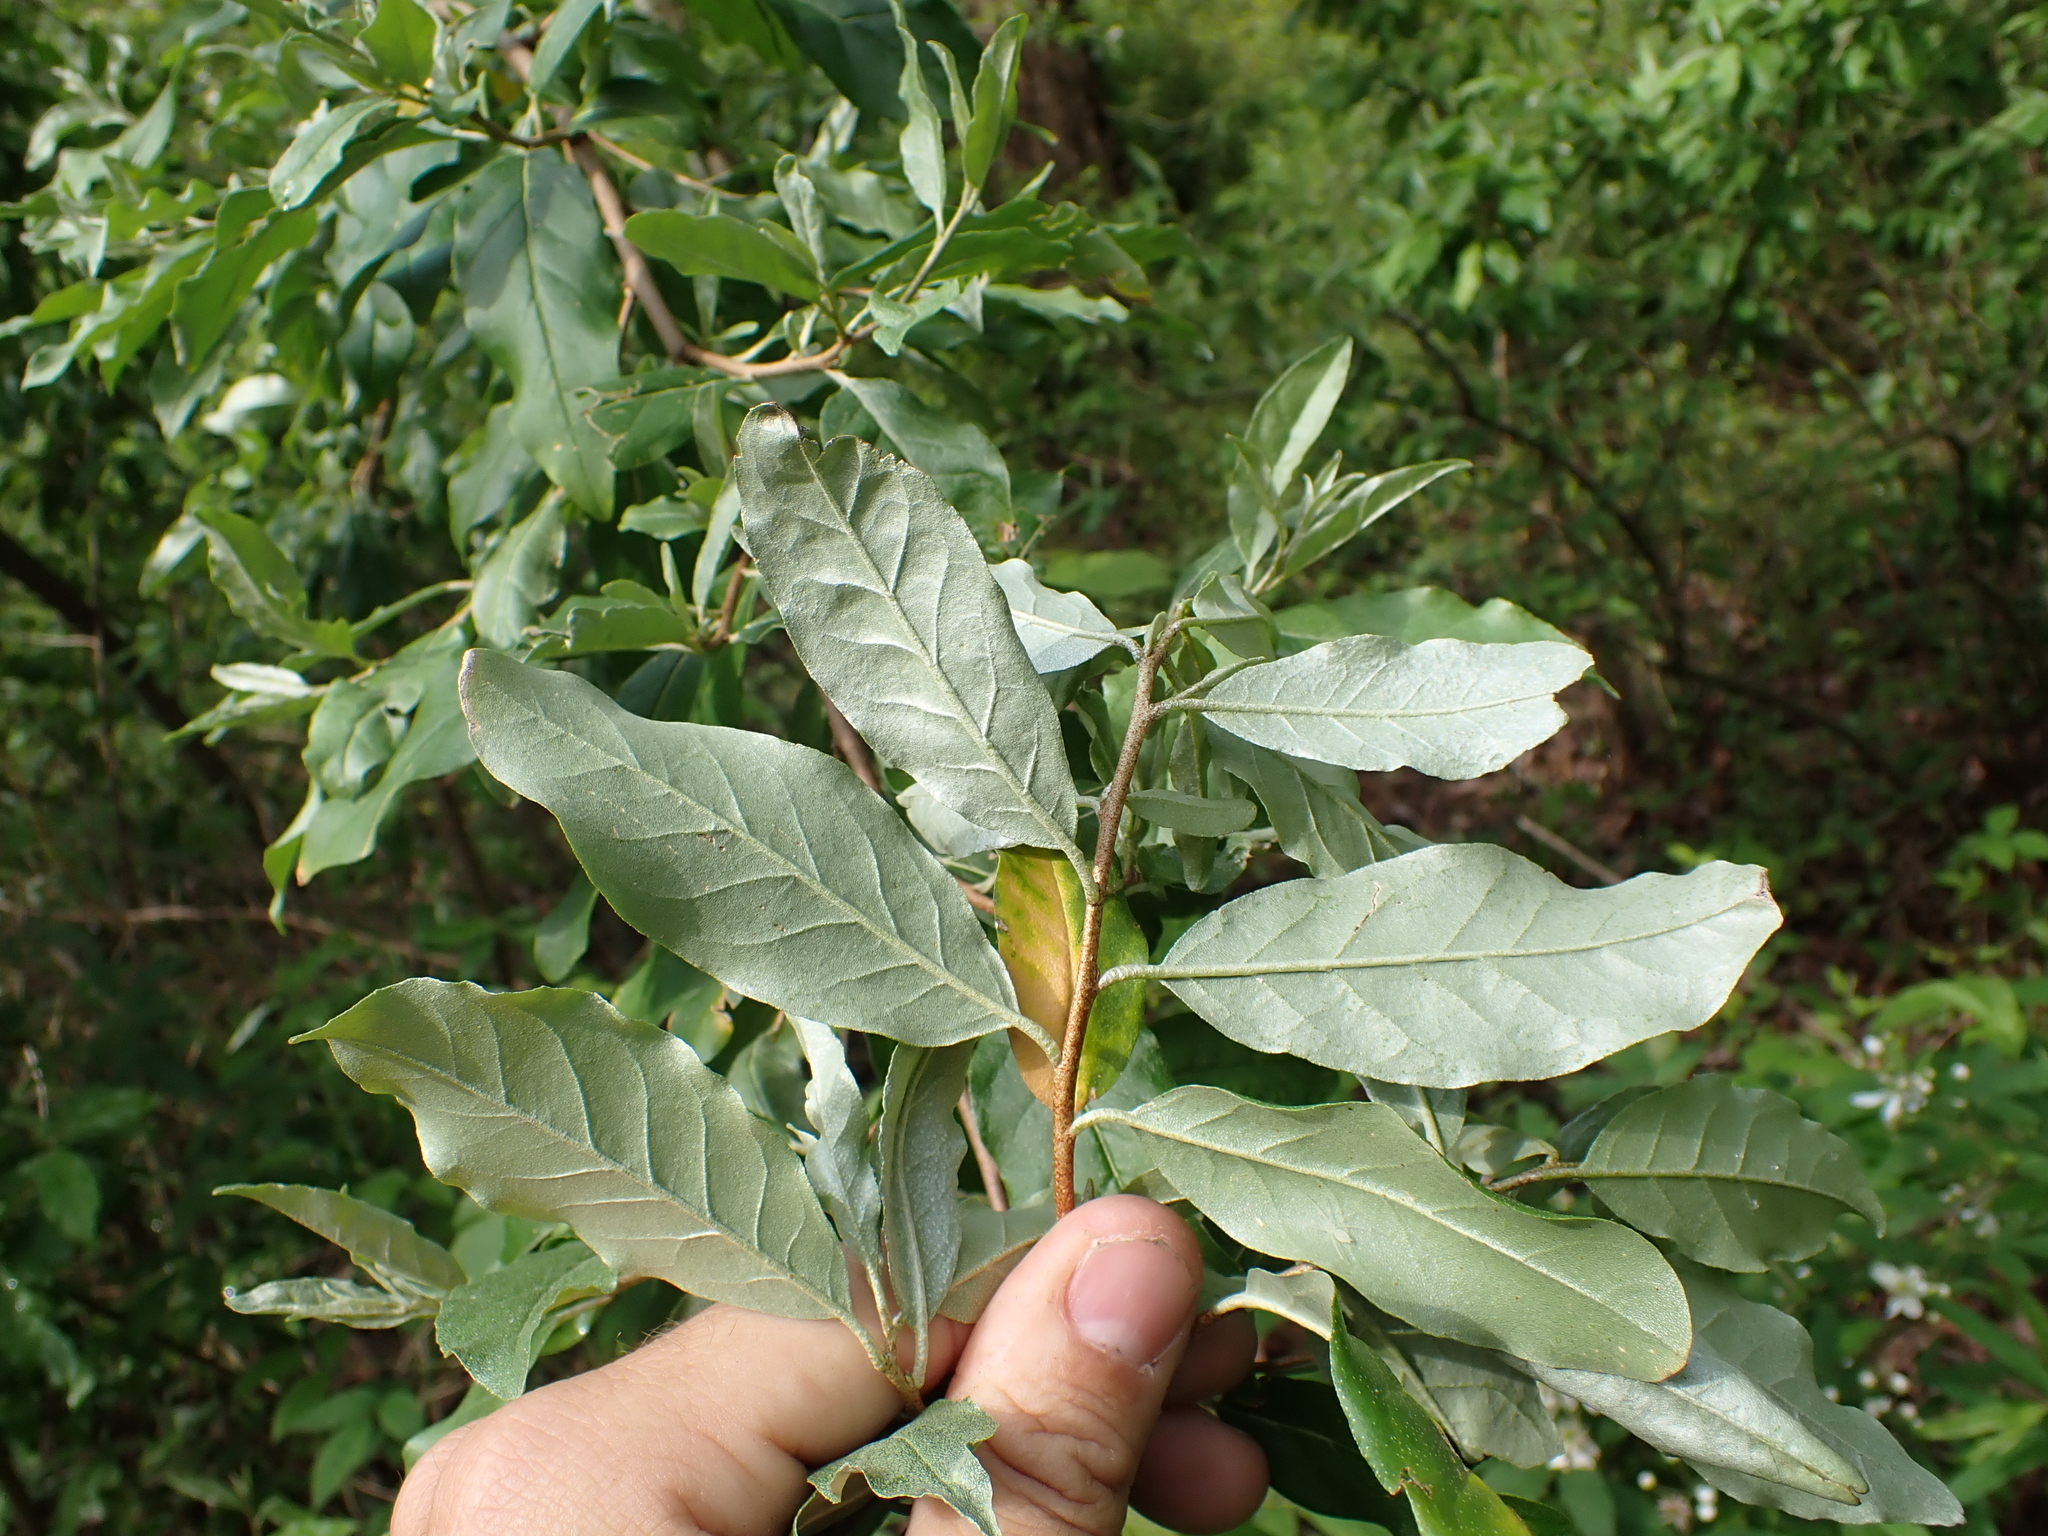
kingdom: Plantae
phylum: Tracheophyta
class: Magnoliopsida
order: Rosales
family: Elaeagnaceae
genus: Elaeagnus
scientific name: Elaeagnus umbellata
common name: Autumn olive
